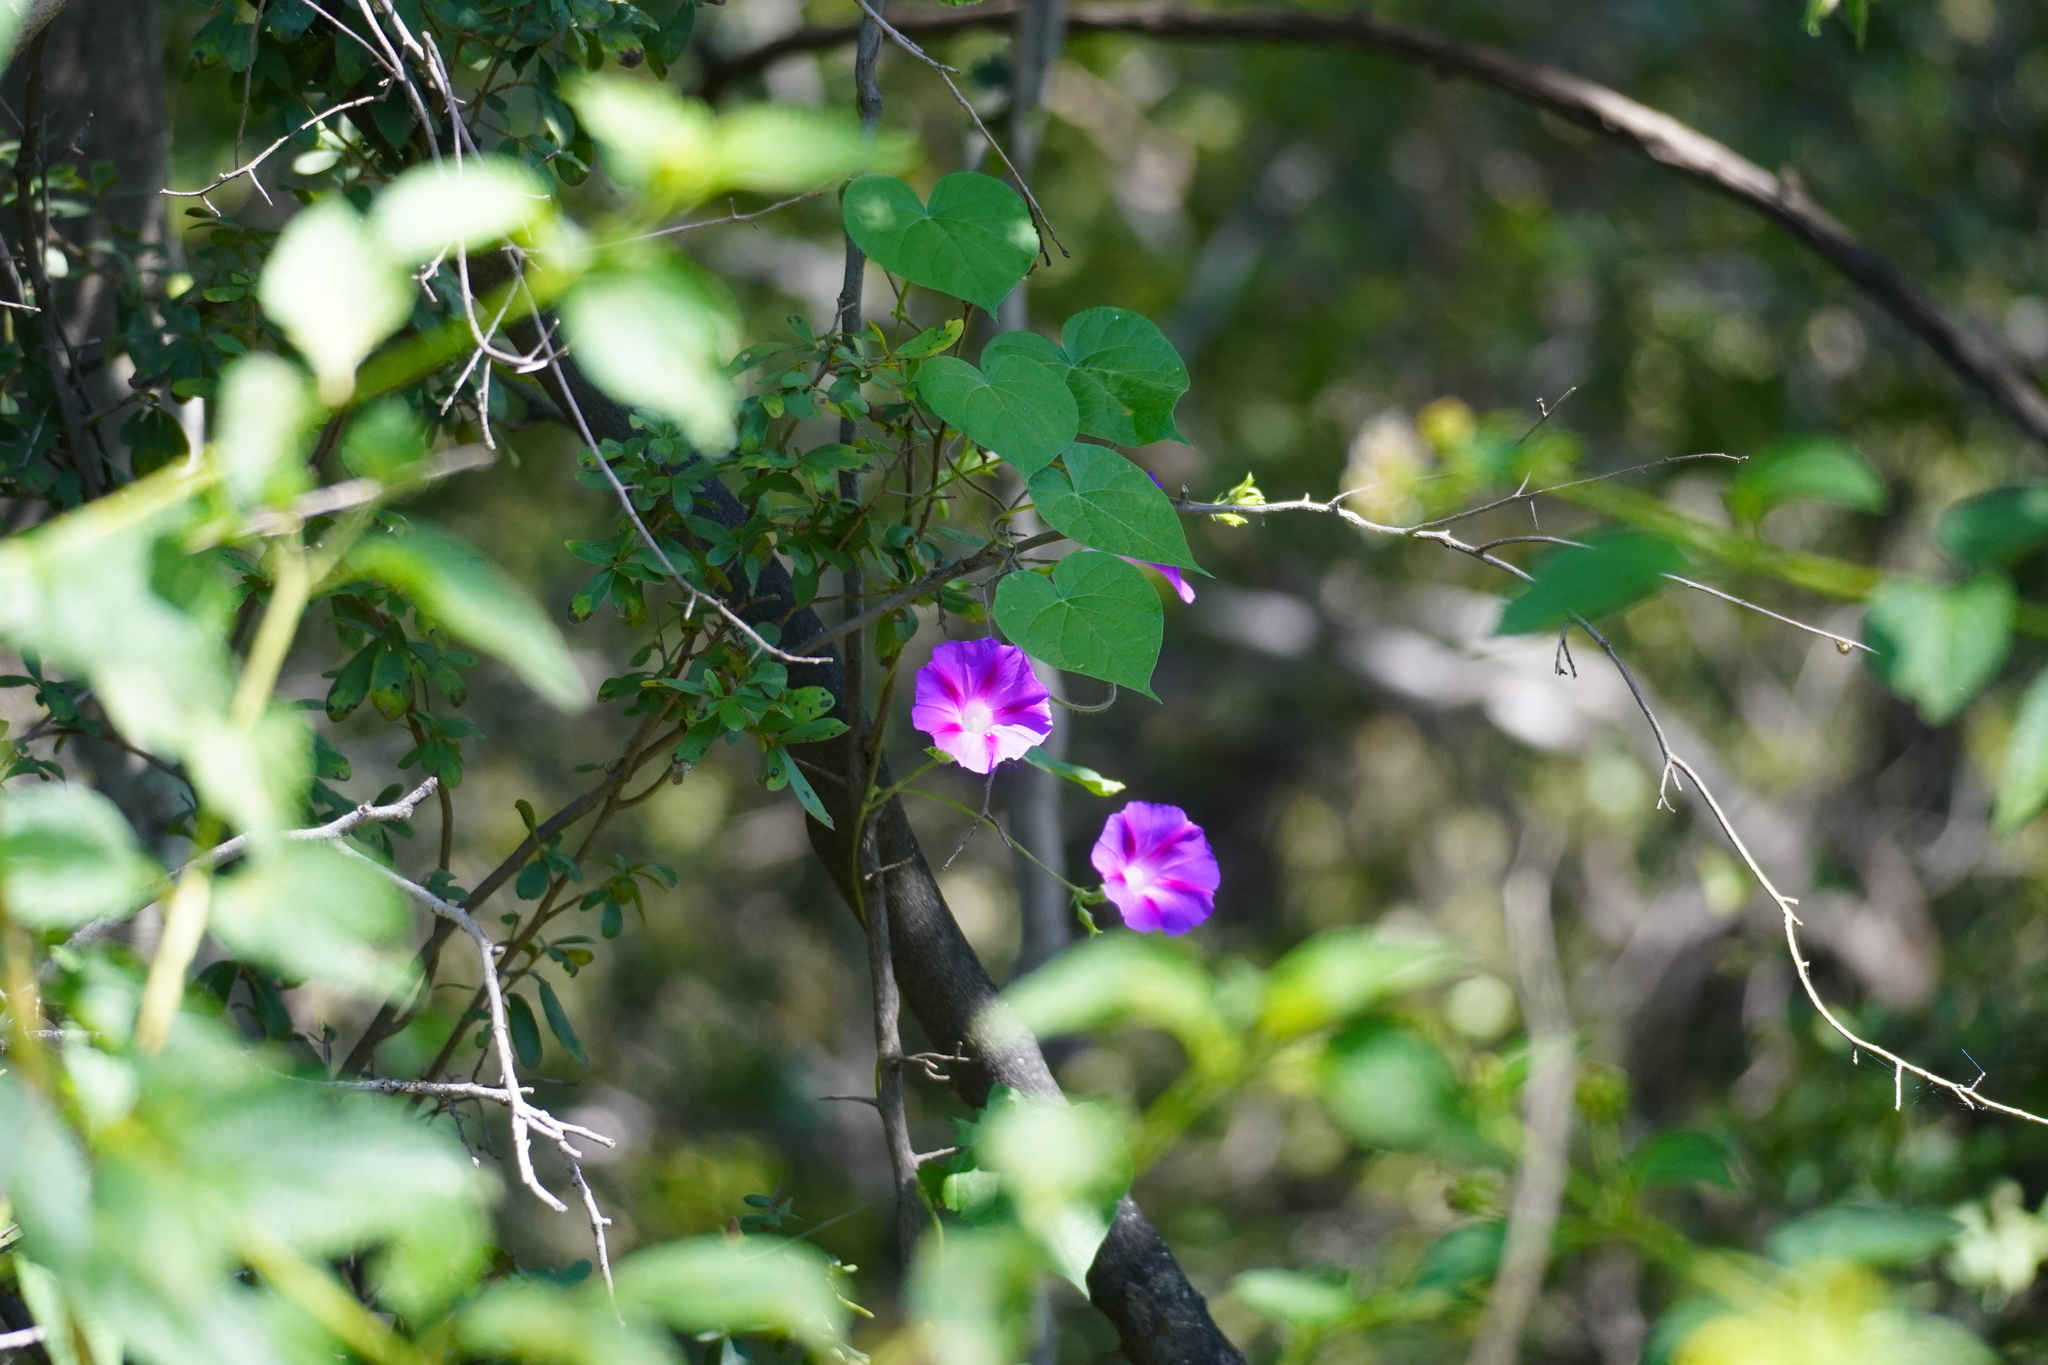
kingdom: Plantae
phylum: Tracheophyta
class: Magnoliopsida
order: Solanales
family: Convolvulaceae
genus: Ipomoea
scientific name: Ipomoea purpurea
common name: Common morning-glory
